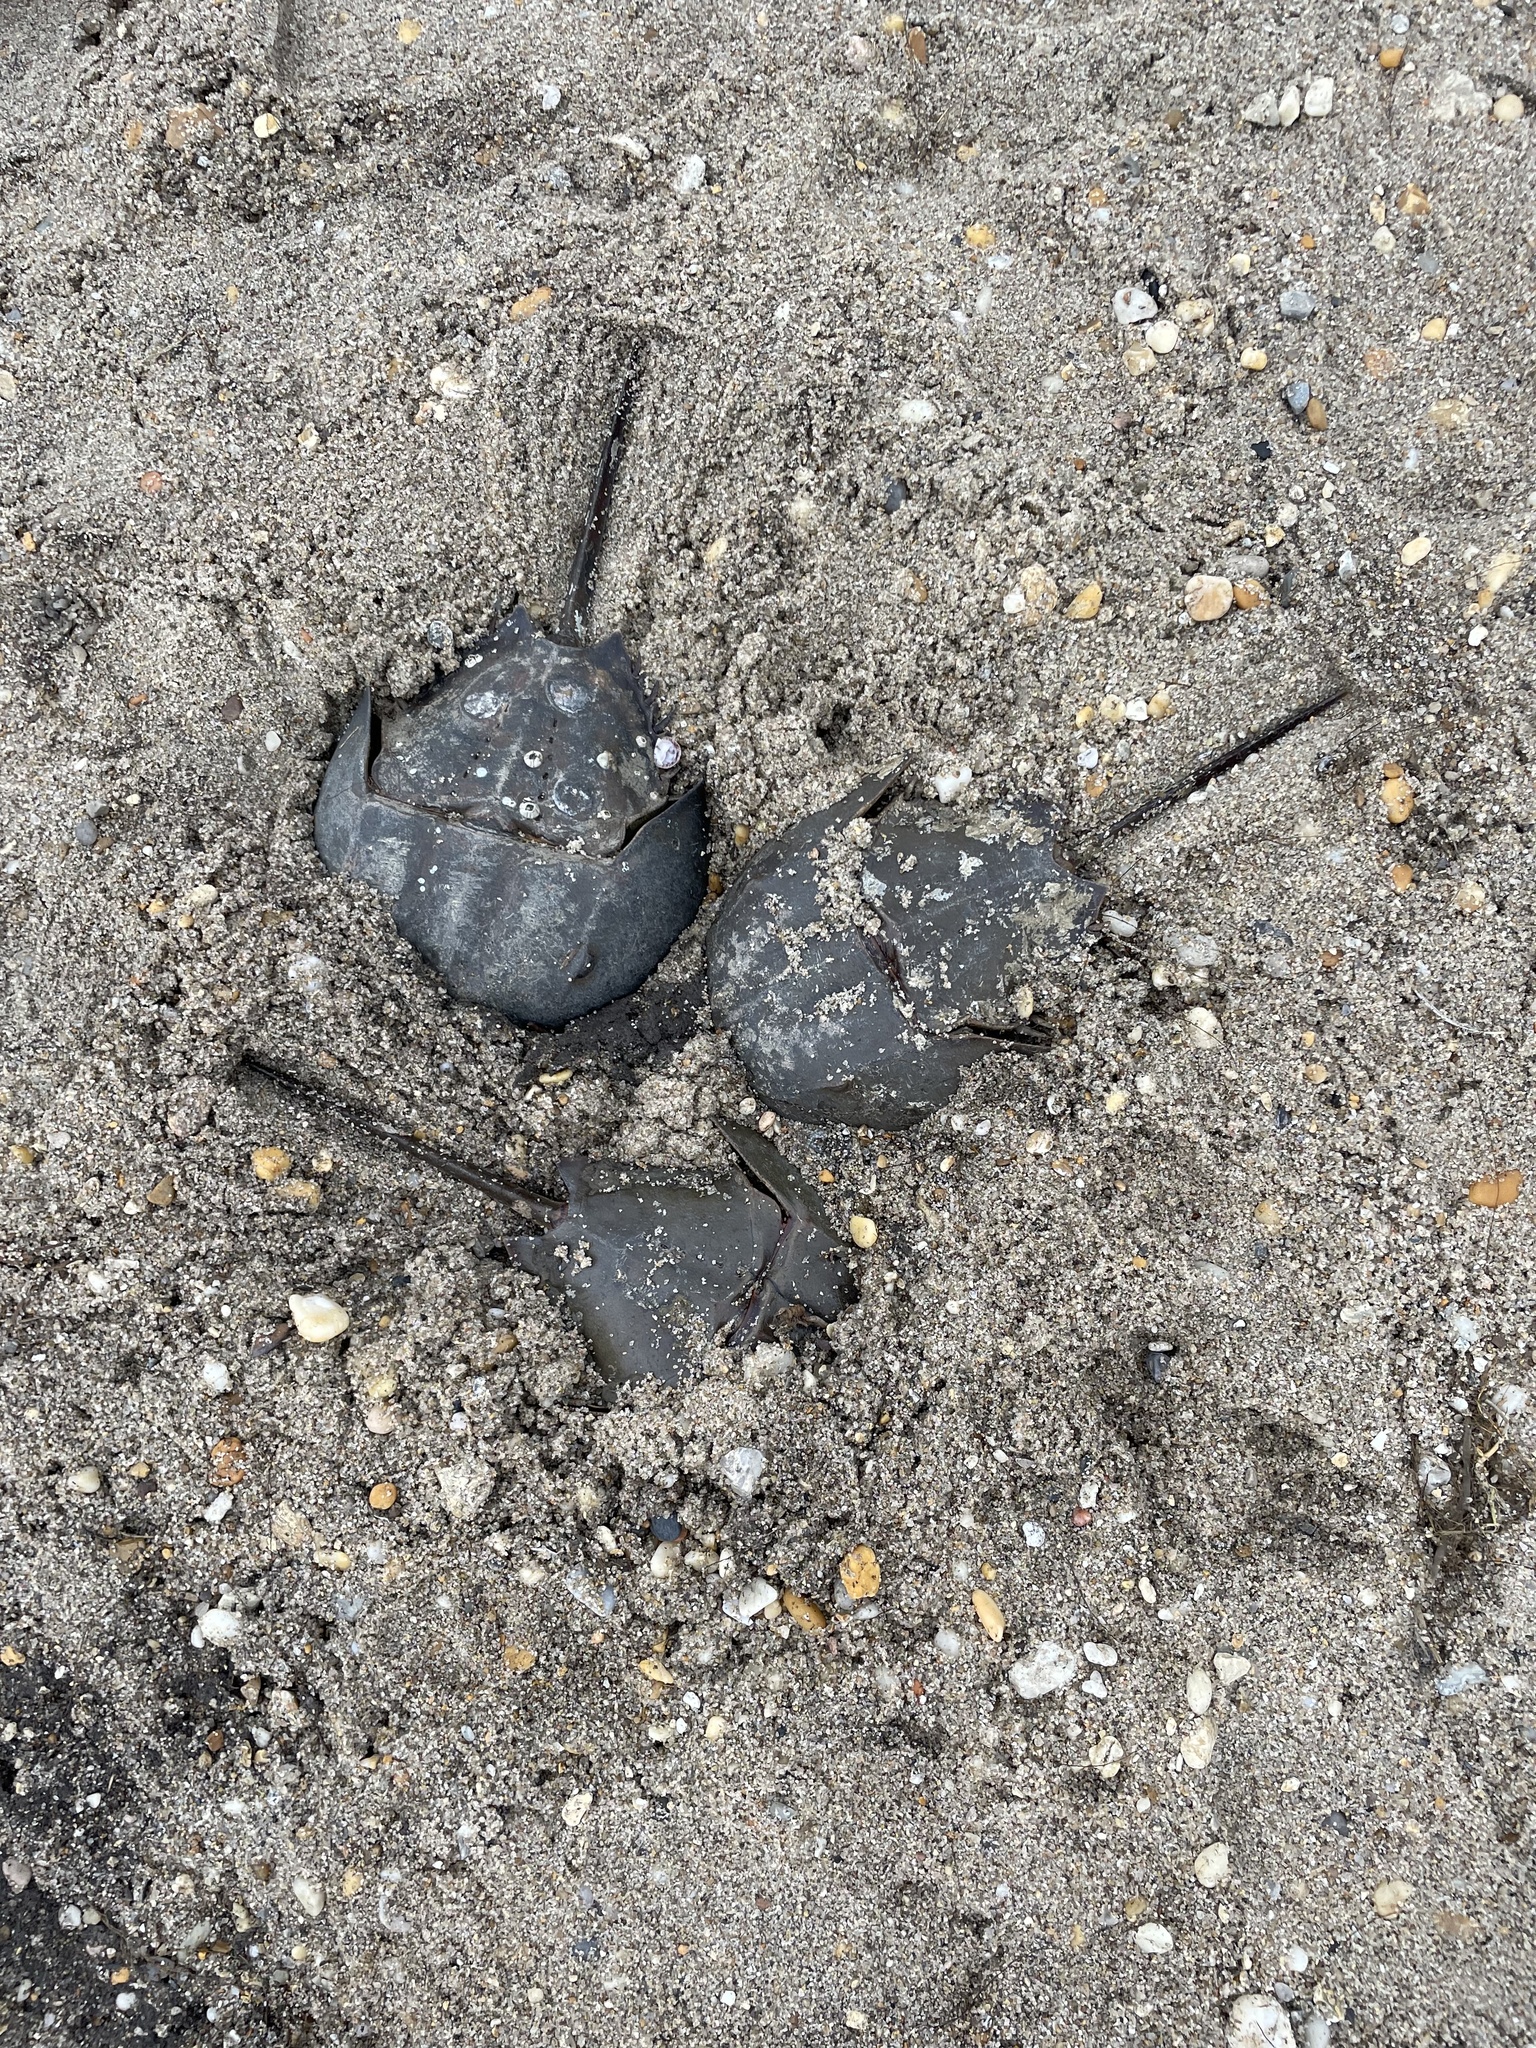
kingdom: Animalia
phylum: Arthropoda
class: Merostomata
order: Xiphosurida
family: Limulidae
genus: Limulus
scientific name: Limulus polyphemus
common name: Horseshoe crab
